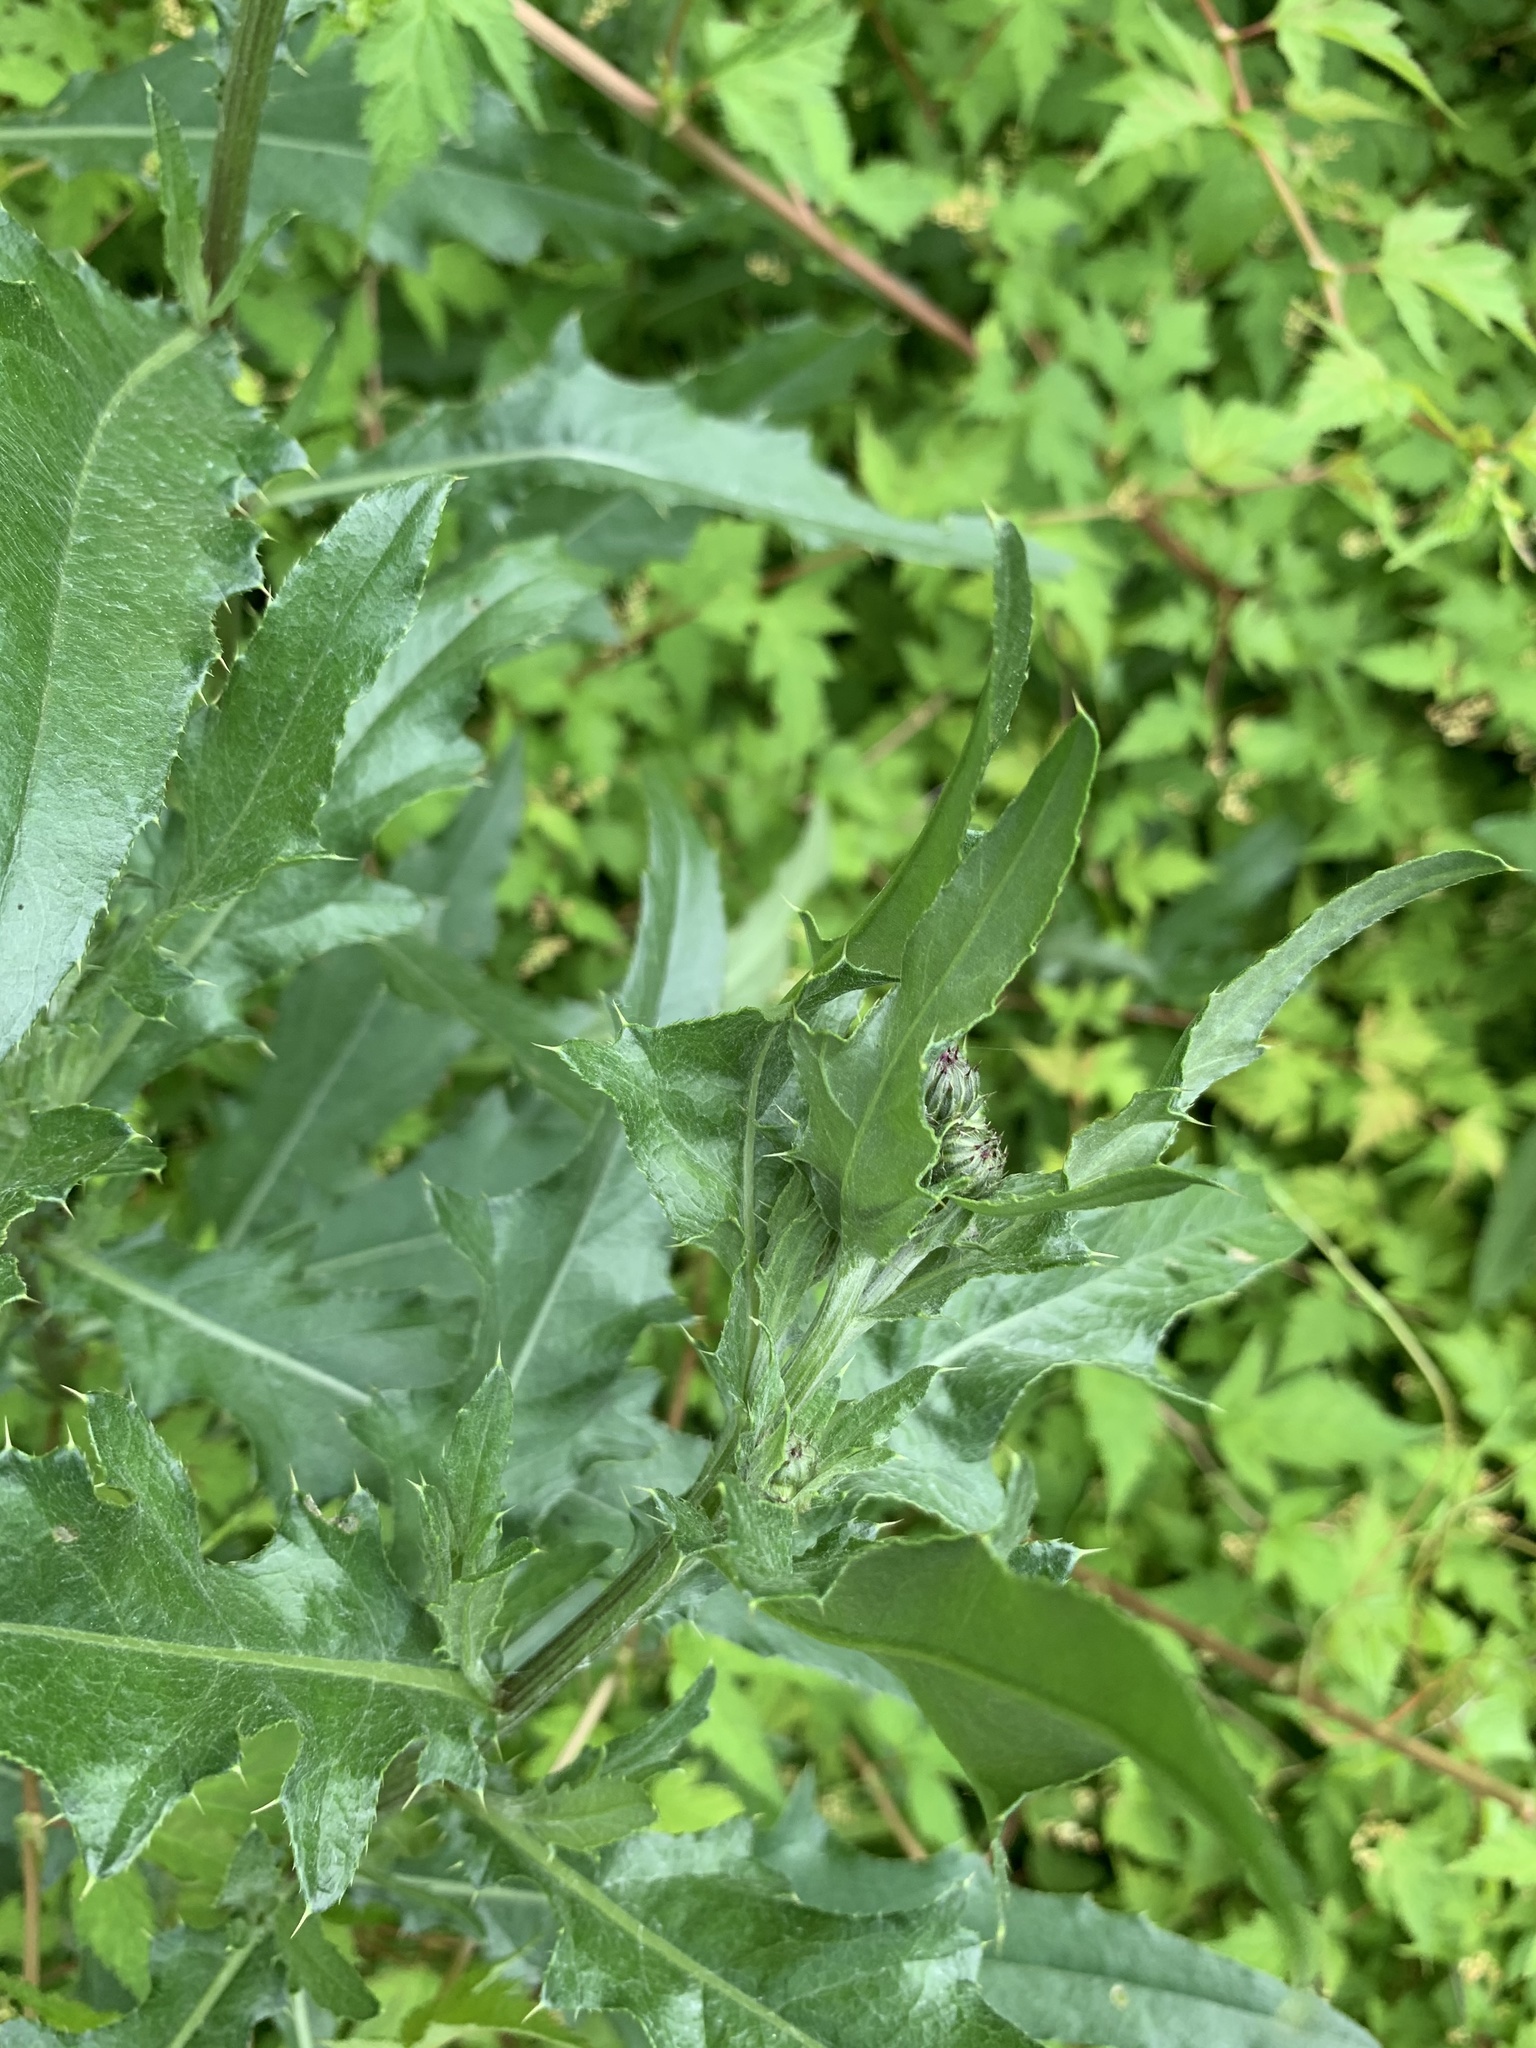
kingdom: Plantae
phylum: Tracheophyta
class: Magnoliopsida
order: Asterales
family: Asteraceae
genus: Cirsium
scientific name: Cirsium arvense
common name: Creeping thistle
